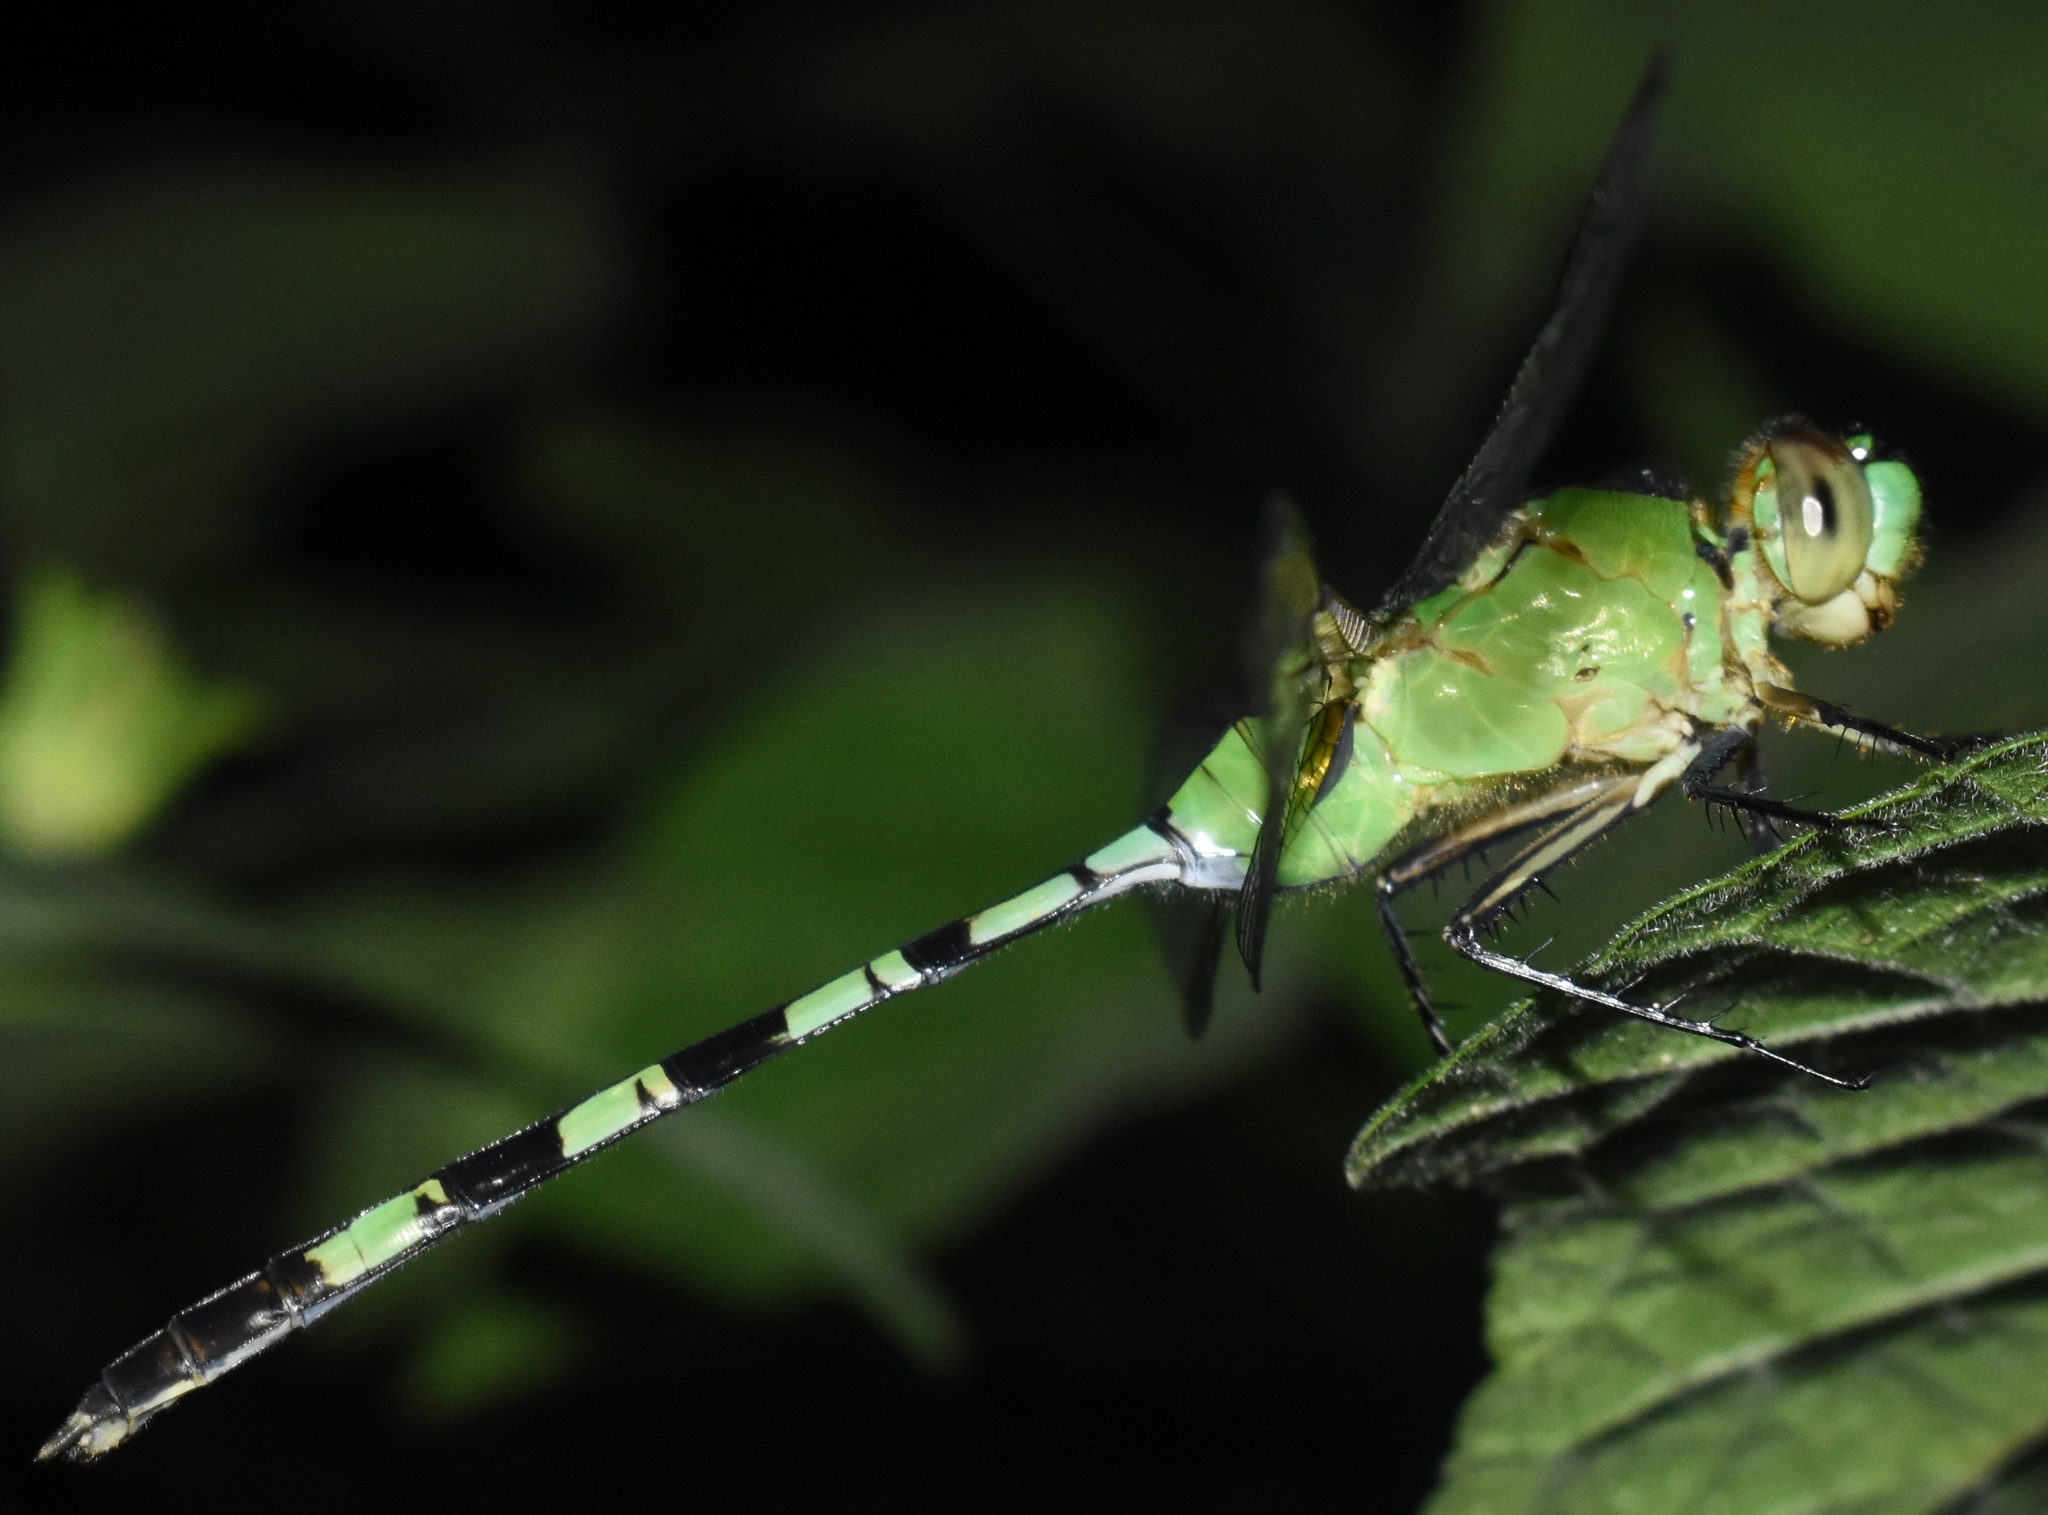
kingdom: Animalia
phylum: Arthropoda
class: Insecta
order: Odonata
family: Libellulidae
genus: Erythemis
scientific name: Erythemis vesiculosa
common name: Great pondhawk
